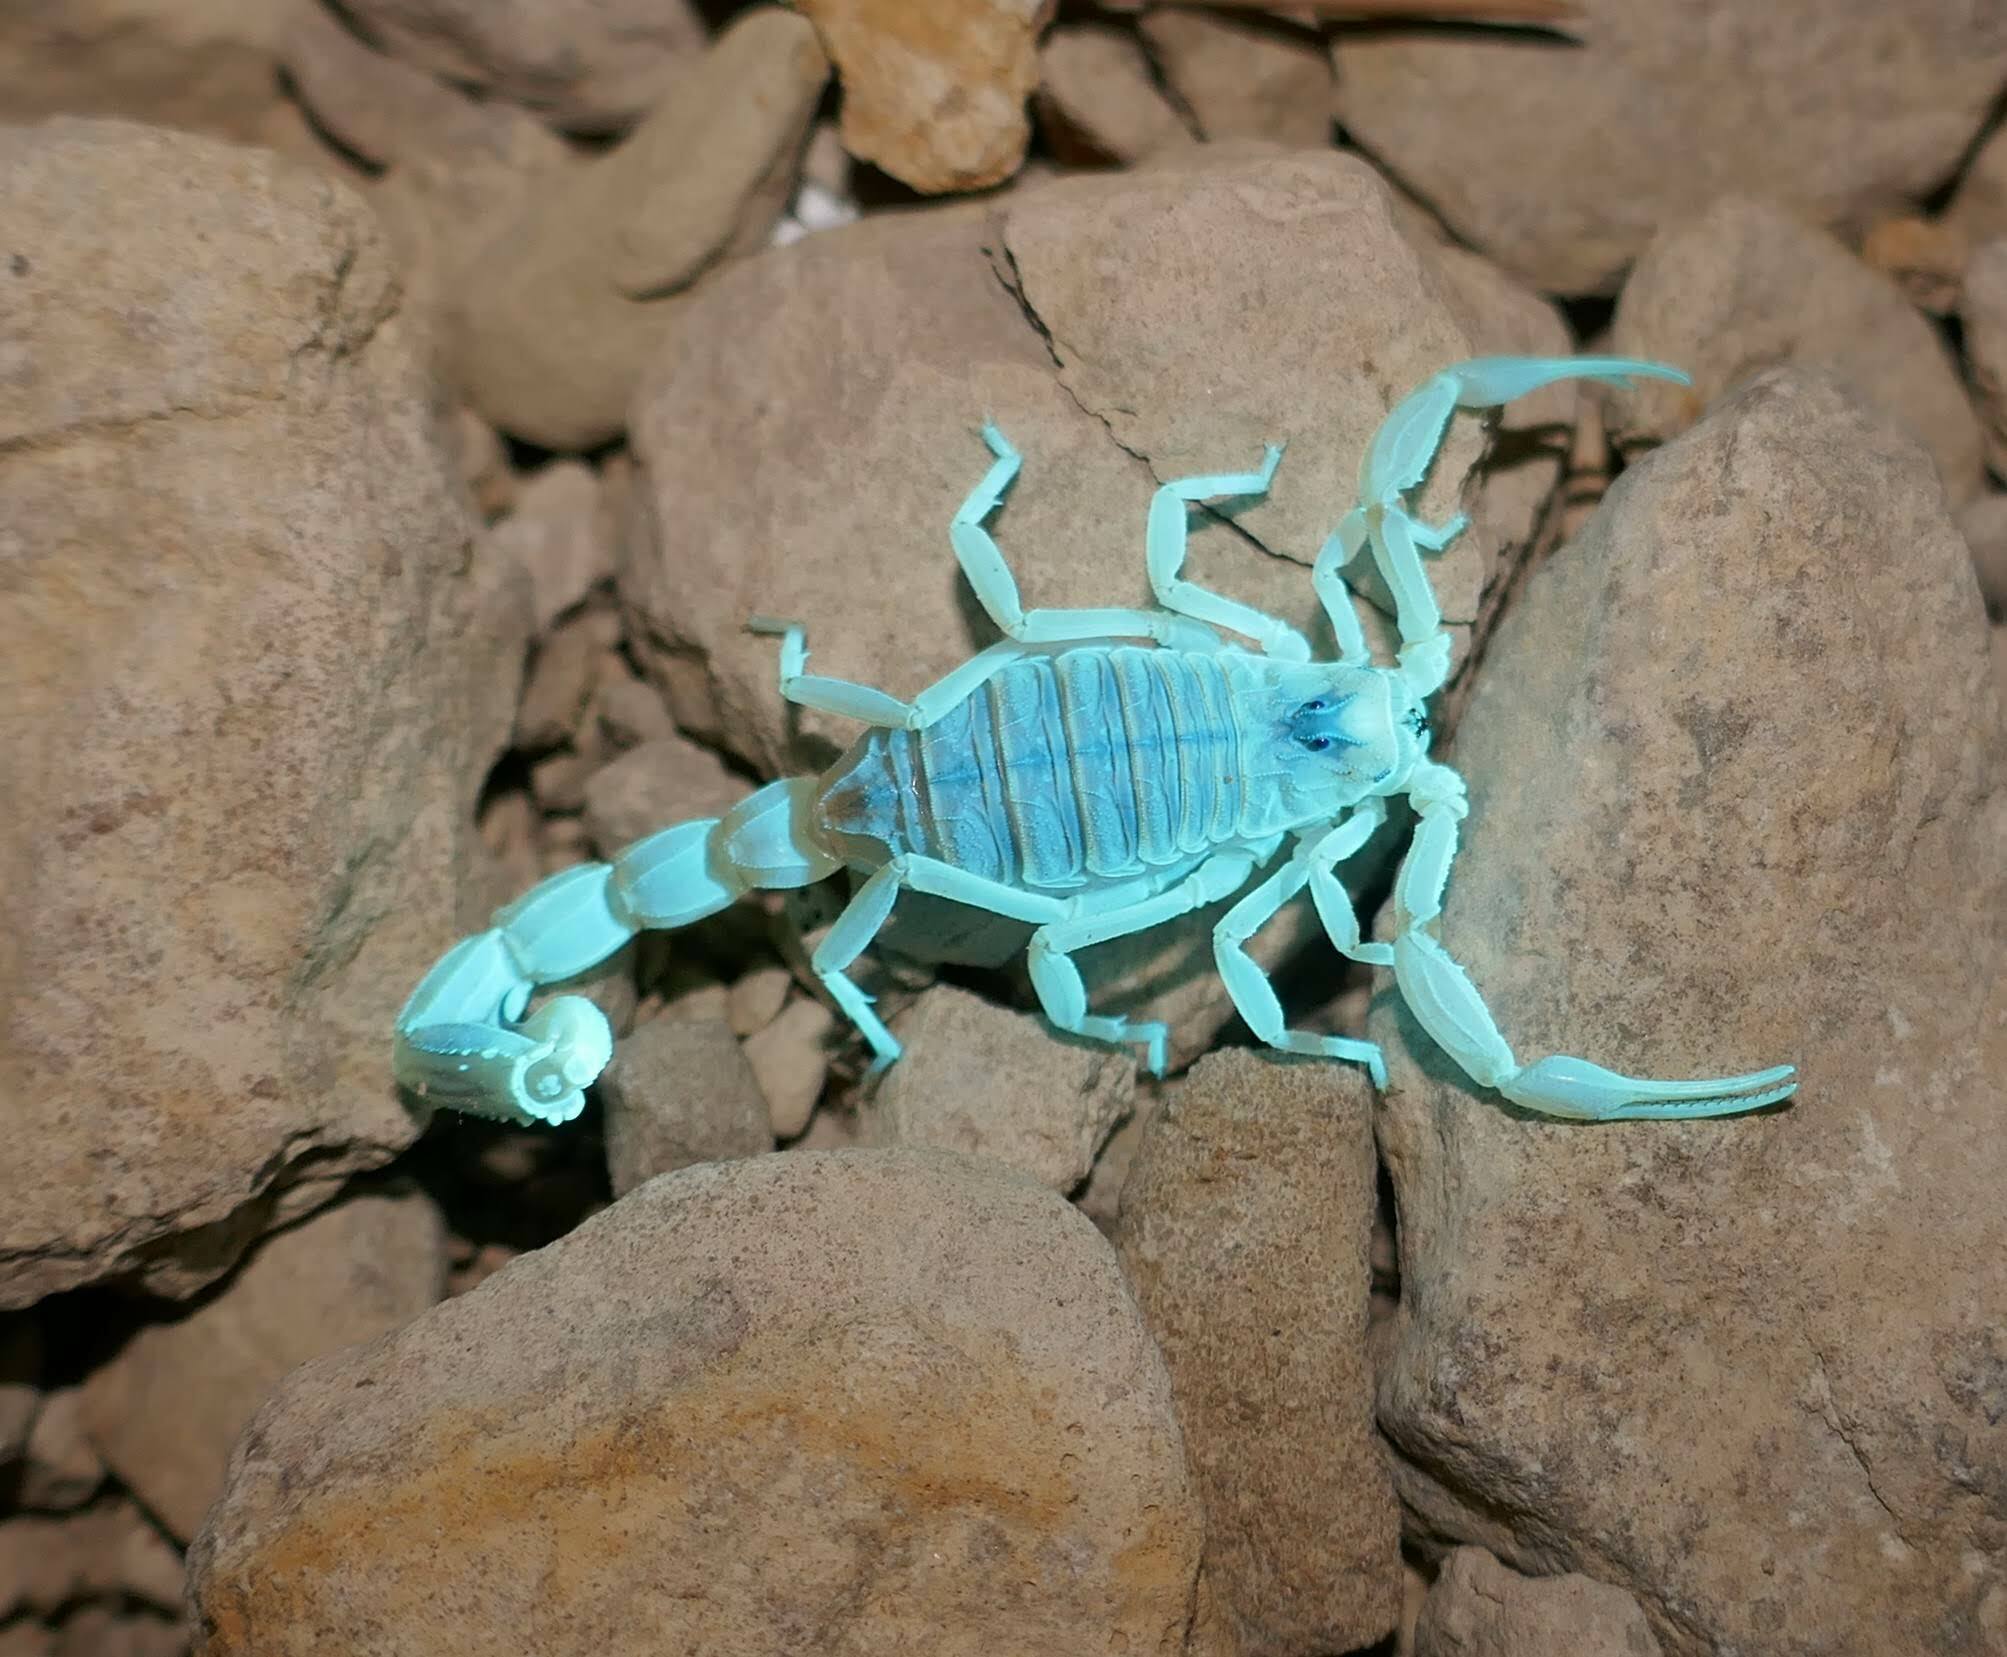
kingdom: Animalia
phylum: Arthropoda
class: Arachnida
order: Scorpiones
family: Buthidae
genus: Buthus
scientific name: Buthus occitanus
